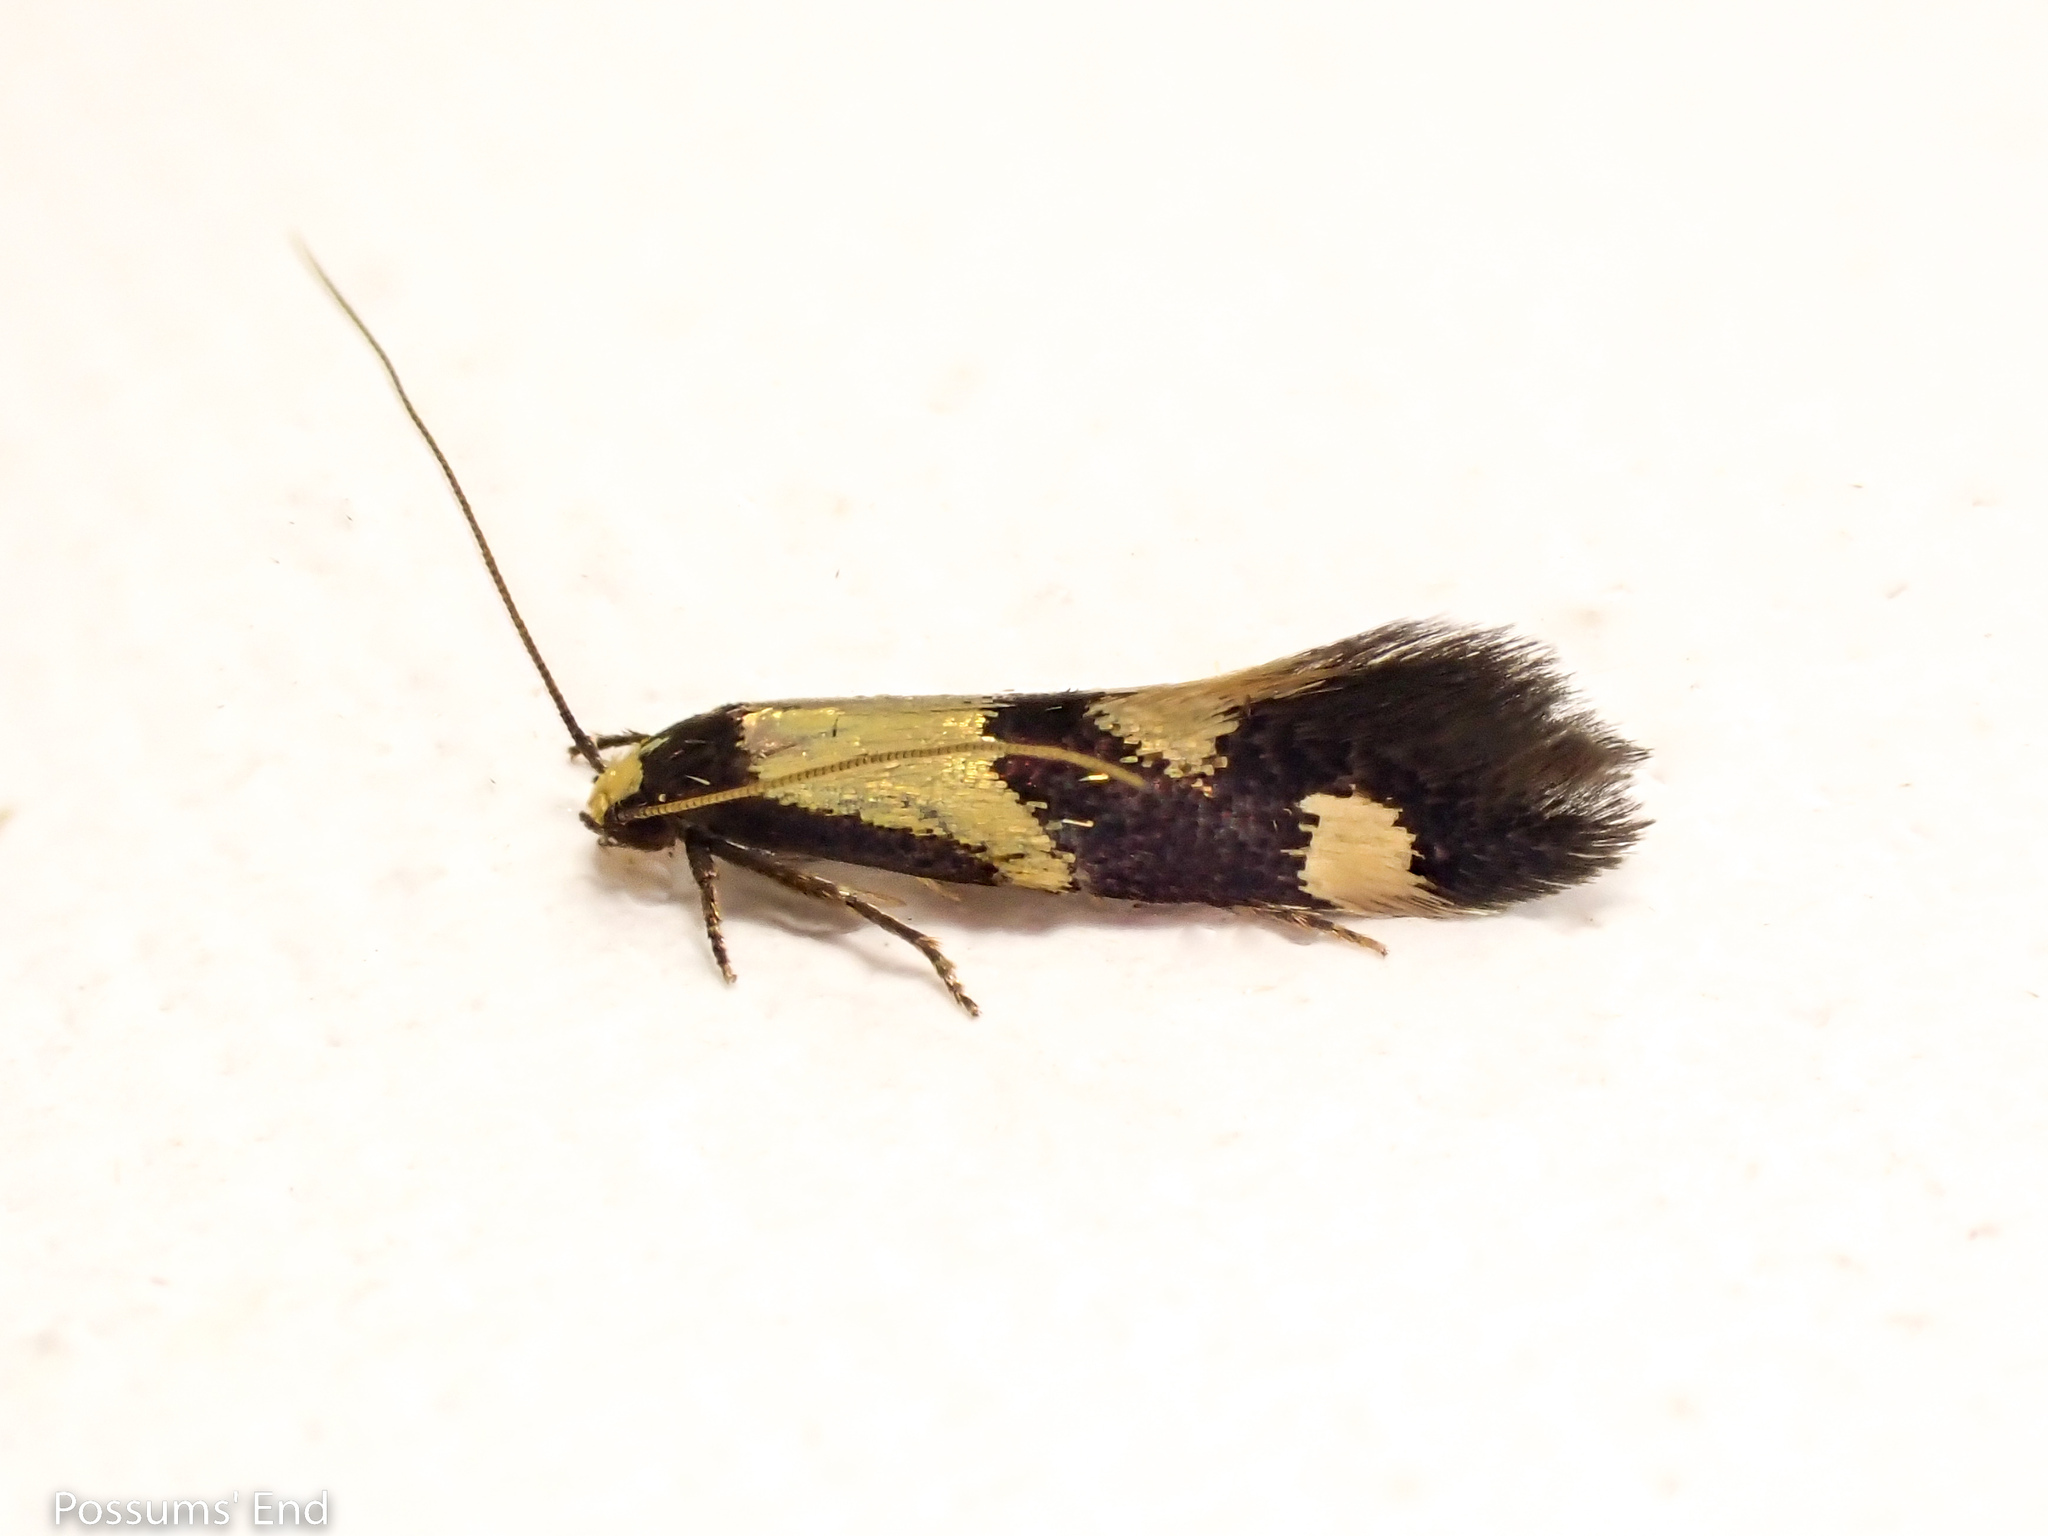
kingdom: Animalia
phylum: Arthropoda
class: Insecta
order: Lepidoptera
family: Tineidae
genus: Opogona
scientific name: Opogona comptella
